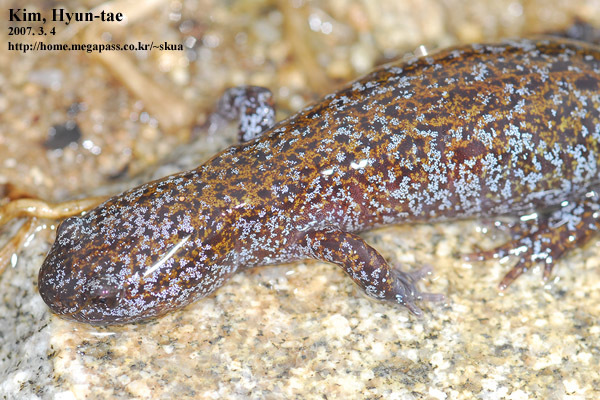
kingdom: Animalia
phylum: Chordata
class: Amphibia
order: Caudata
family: Hynobiidae
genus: Hynobius
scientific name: Hynobius leechii
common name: Gensan salamander
